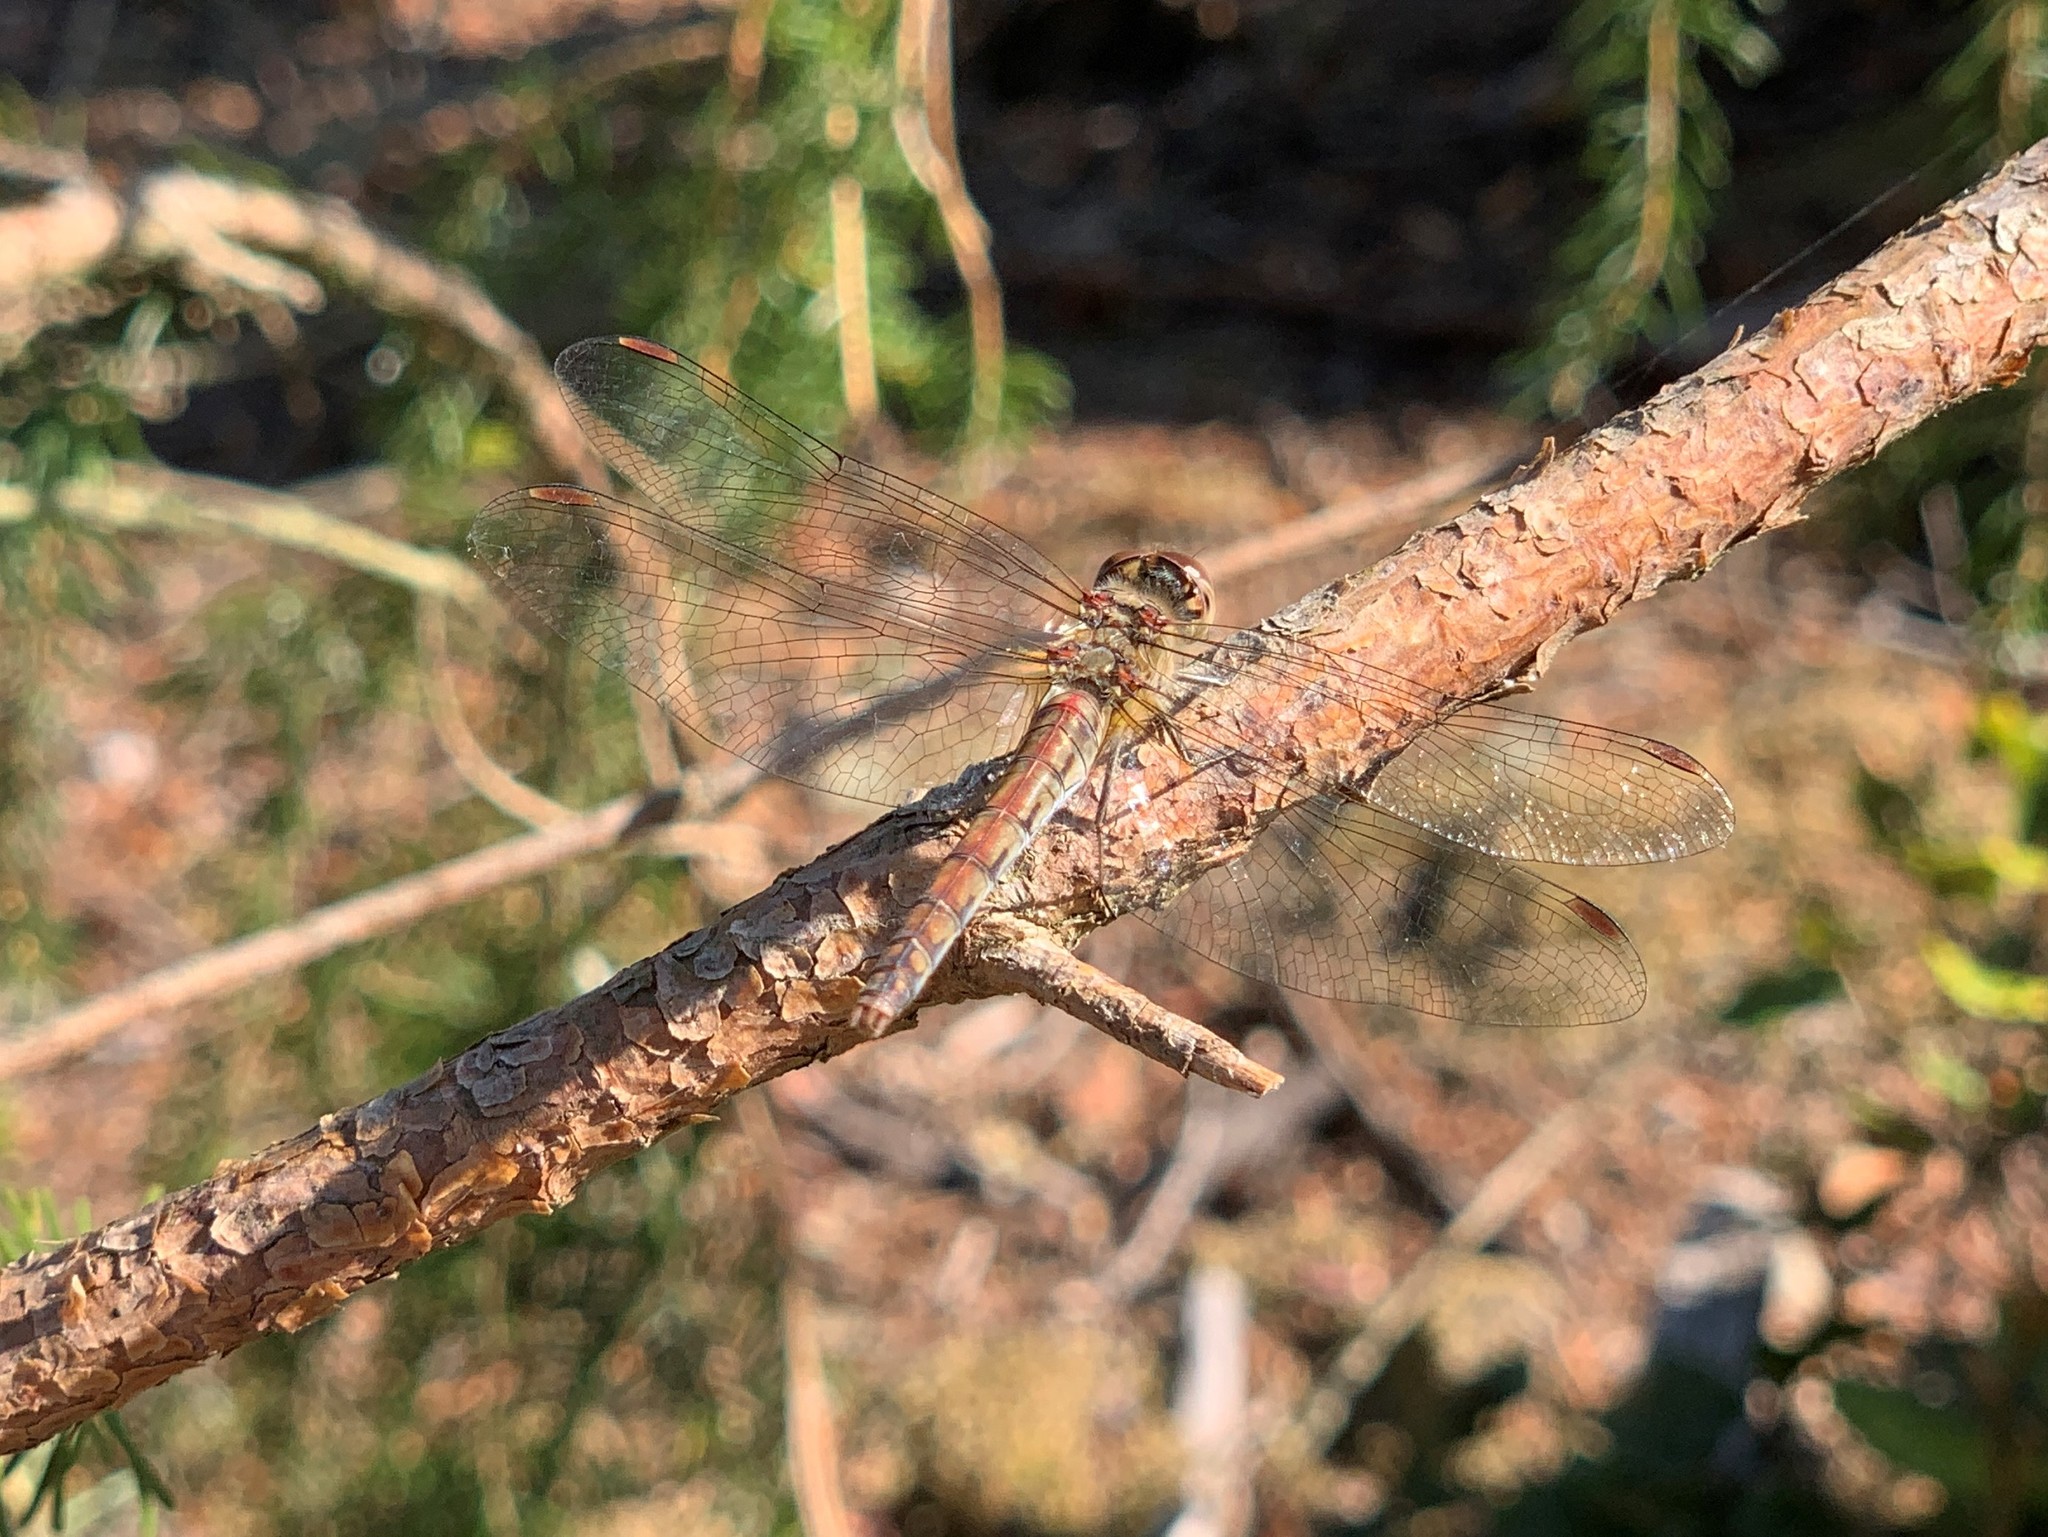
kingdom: Animalia
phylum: Arthropoda
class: Insecta
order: Odonata
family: Libellulidae
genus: Sympetrum
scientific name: Sympetrum striolatum
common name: Common darter
